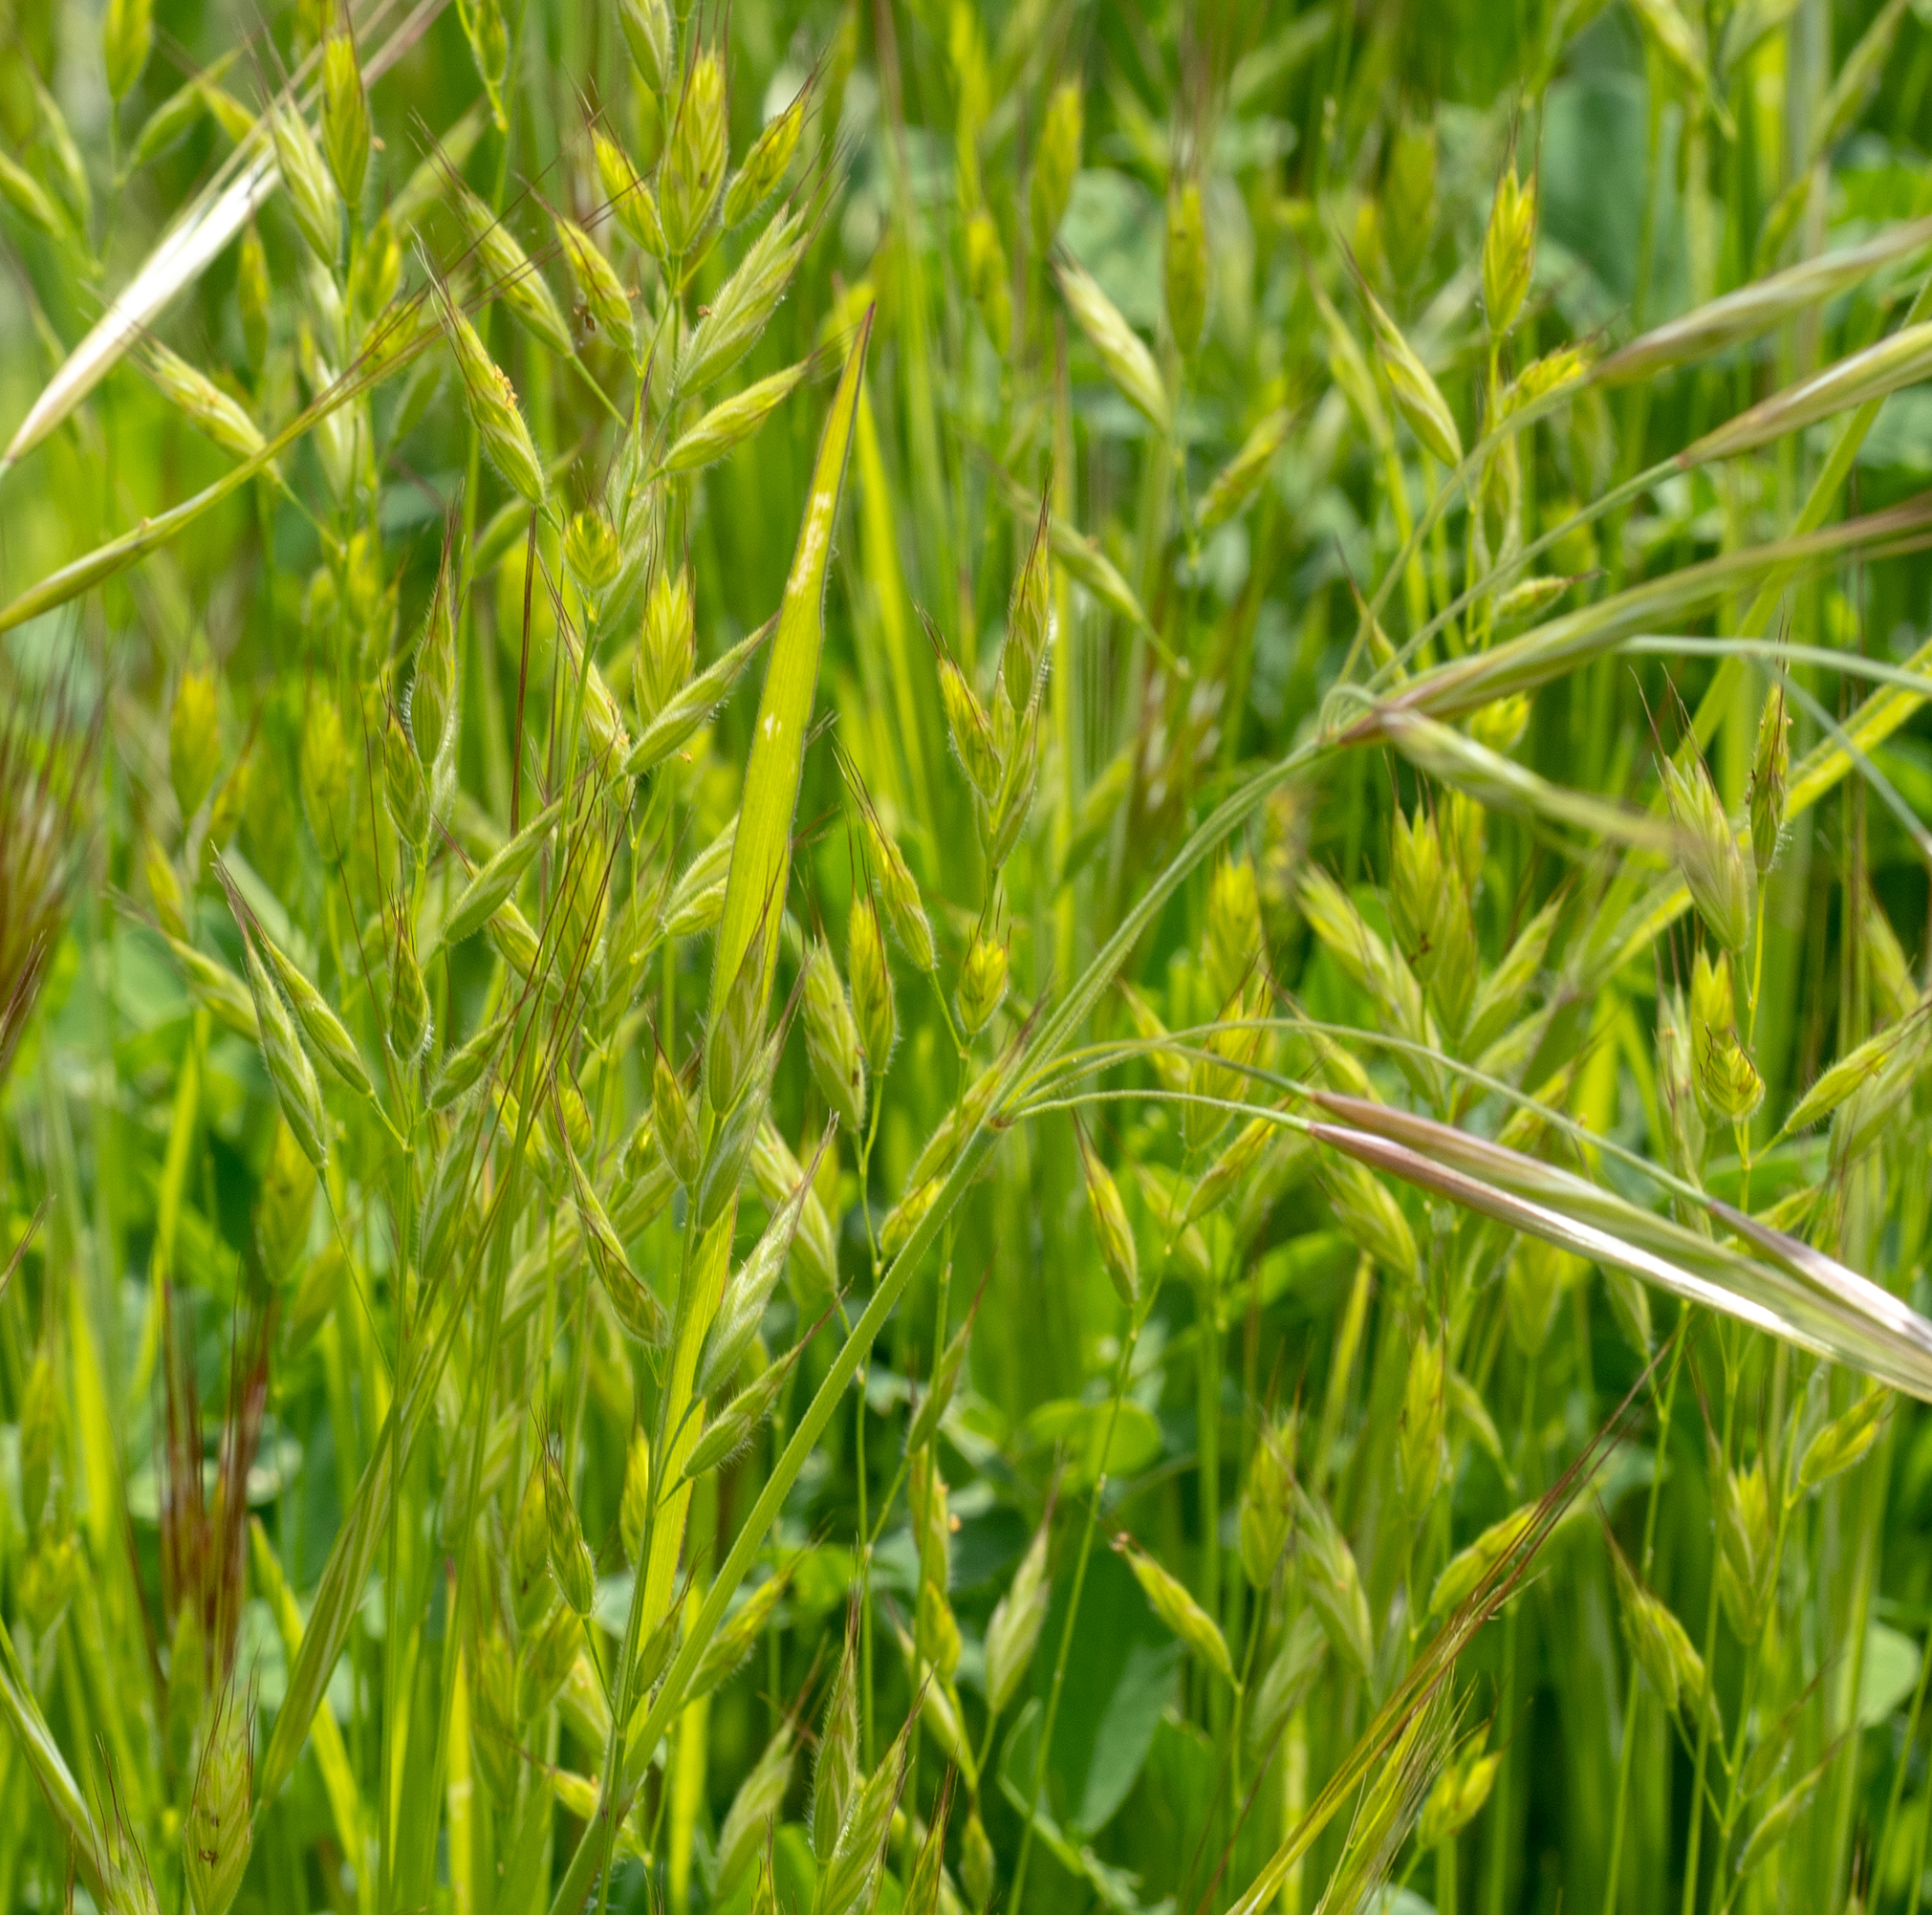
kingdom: Plantae
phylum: Tracheophyta
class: Liliopsida
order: Poales
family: Poaceae
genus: Bromus
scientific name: Bromus hordeaceus
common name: Soft brome
